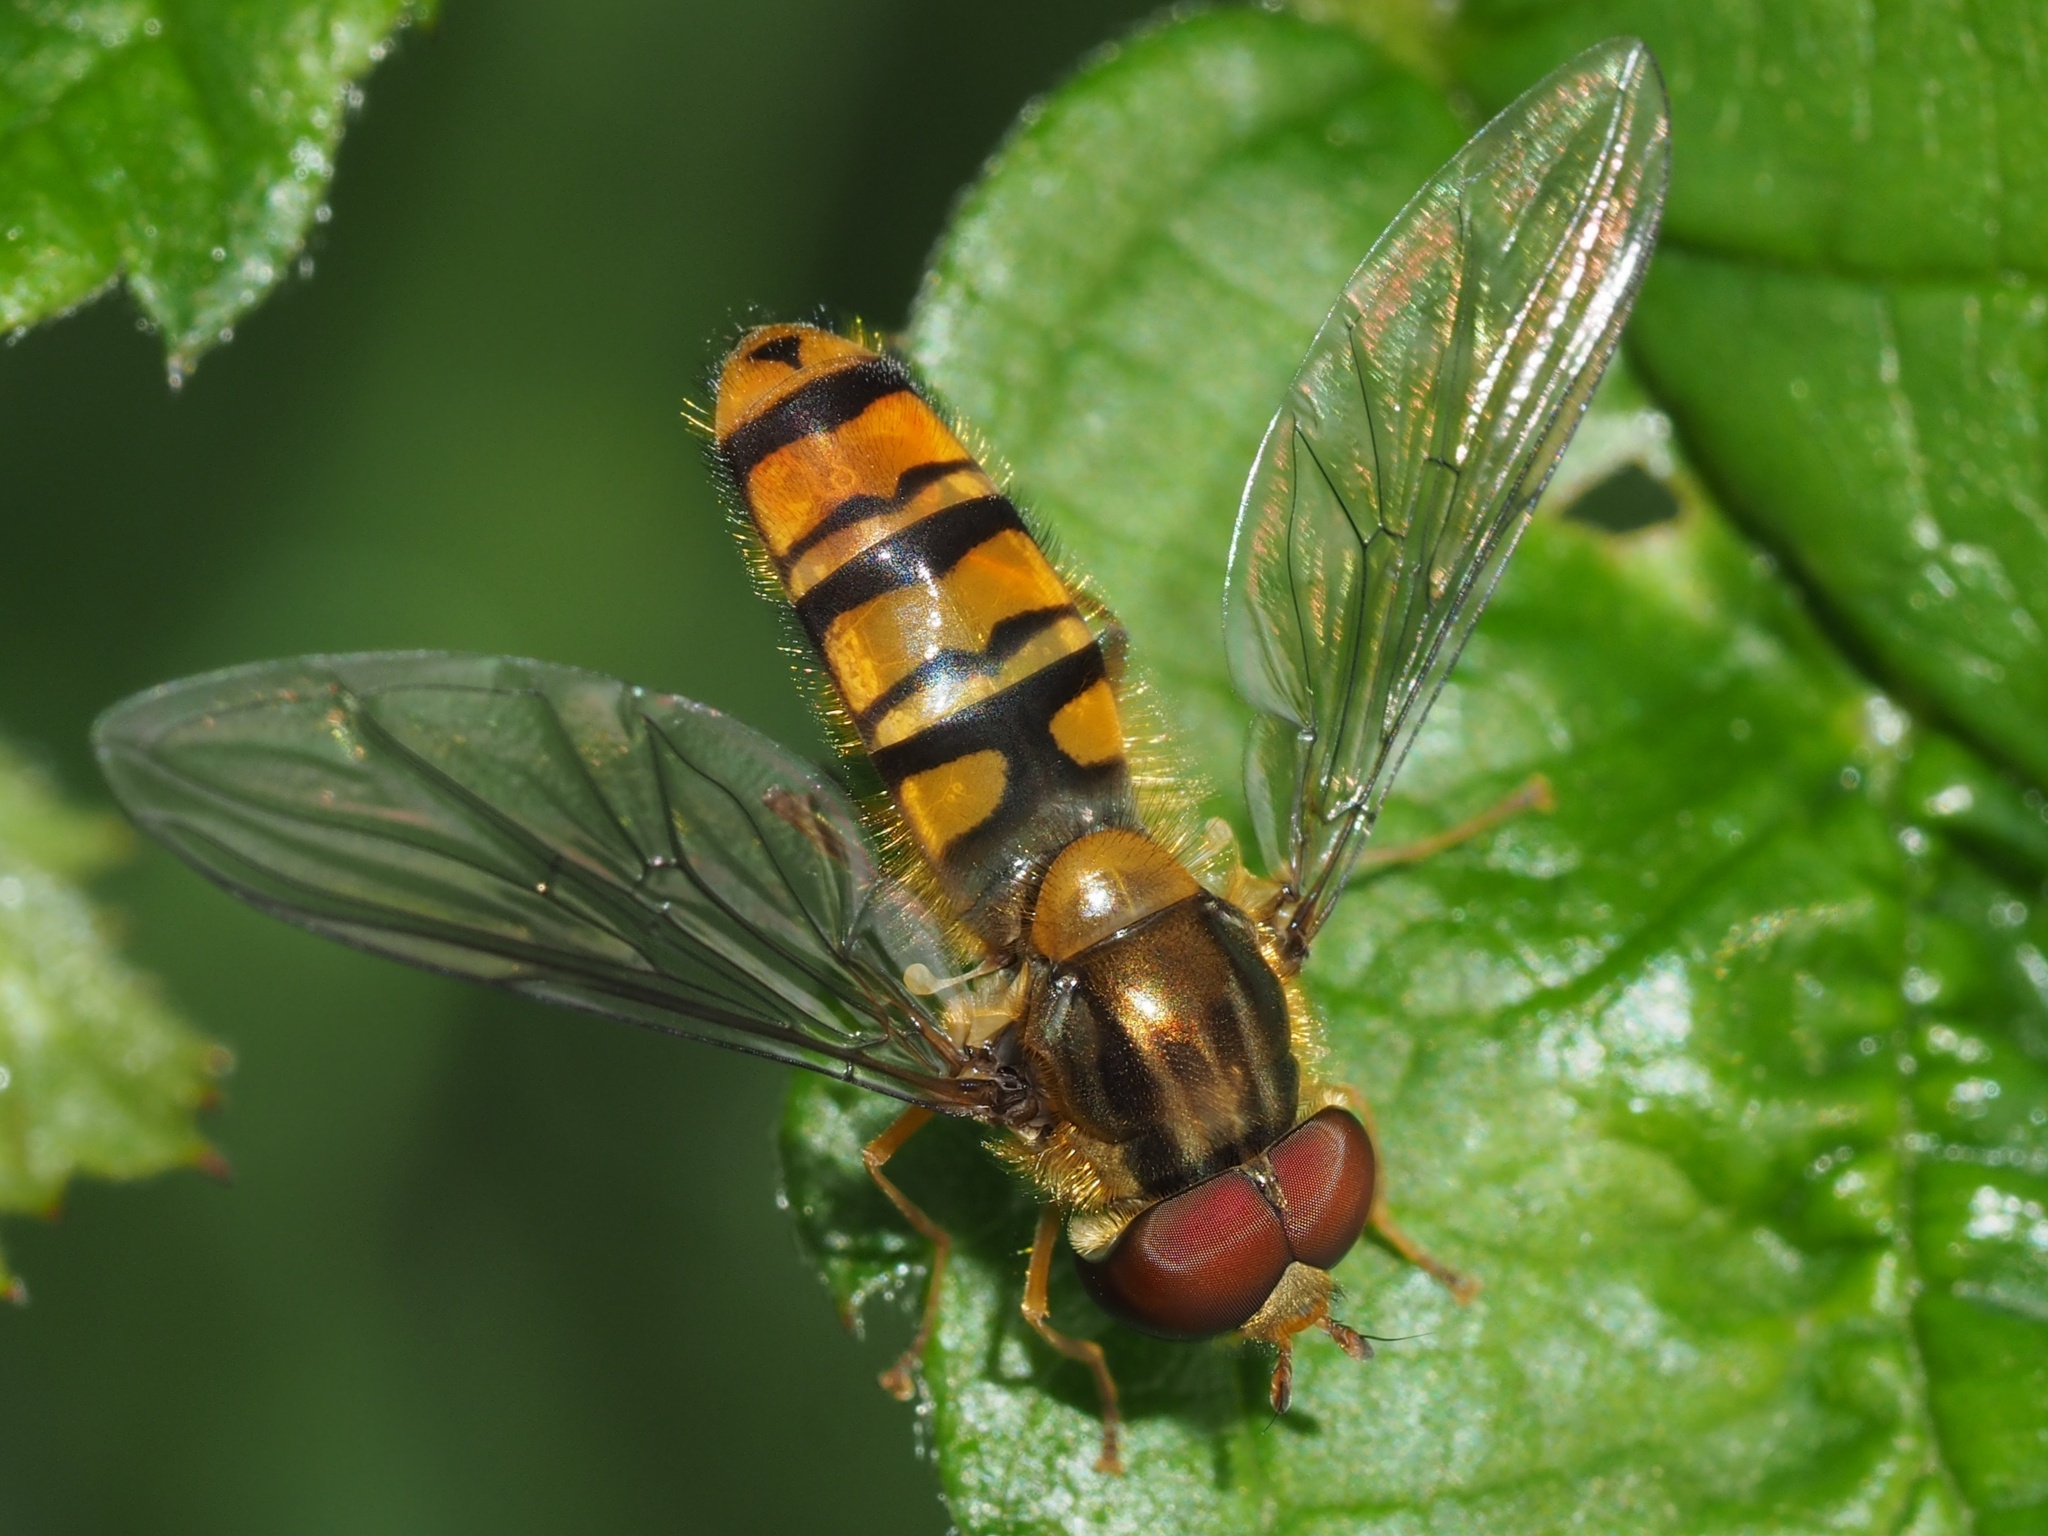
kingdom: Animalia
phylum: Arthropoda
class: Insecta
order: Diptera
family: Syrphidae
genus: Episyrphus
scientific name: Episyrphus balteatus
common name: Marmalade hoverfly
